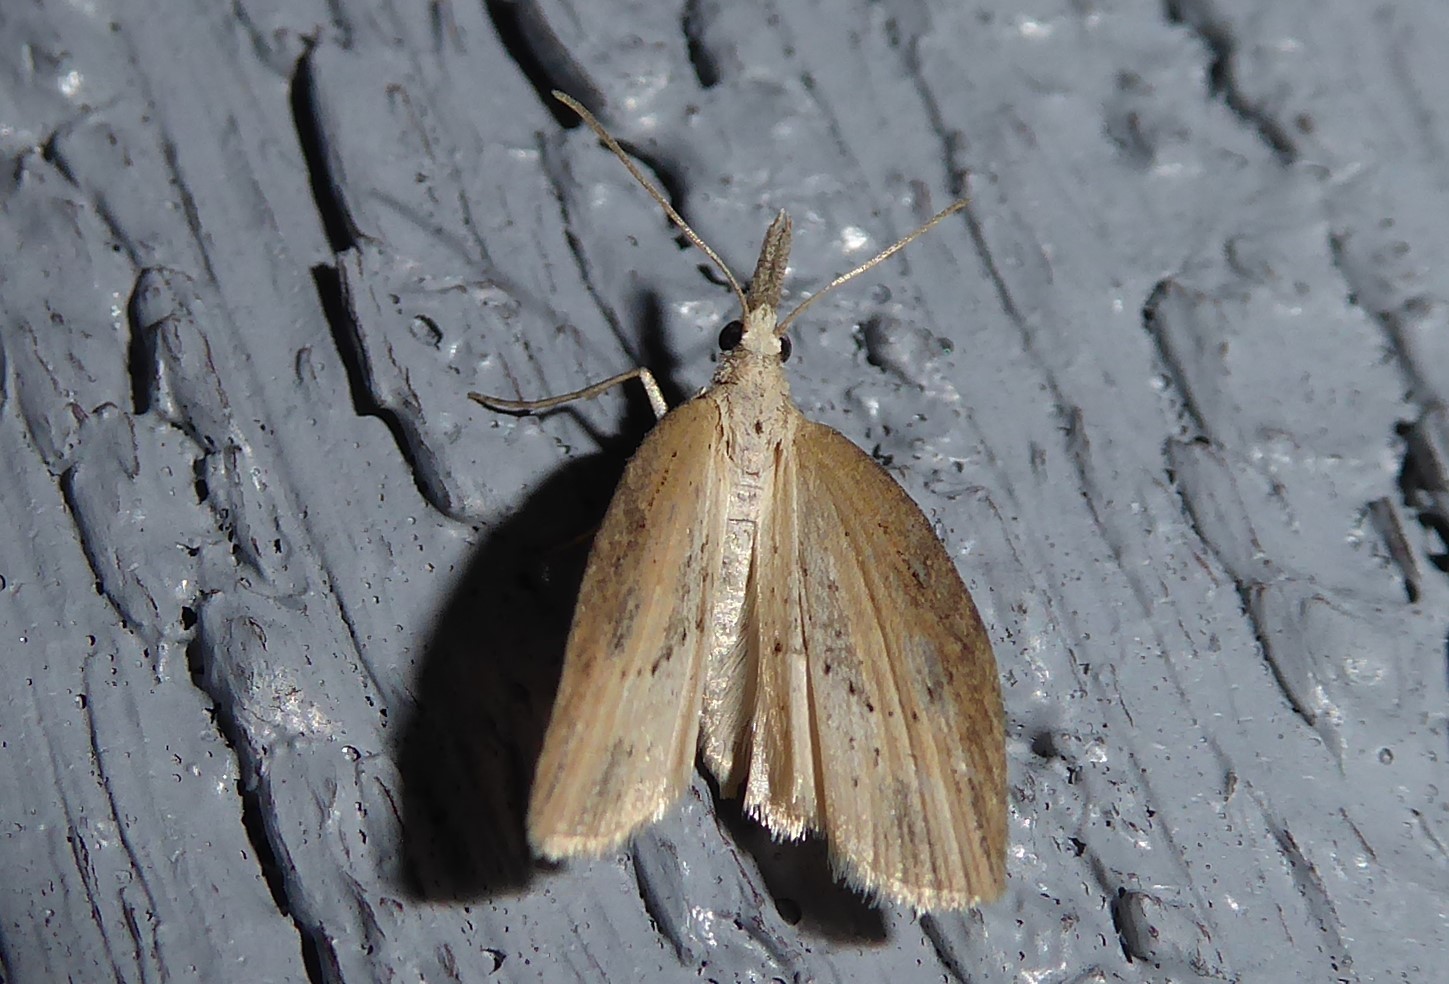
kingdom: Animalia
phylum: Arthropoda
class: Insecta
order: Lepidoptera
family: Geometridae
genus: Microdes
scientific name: Microdes epicryptis
